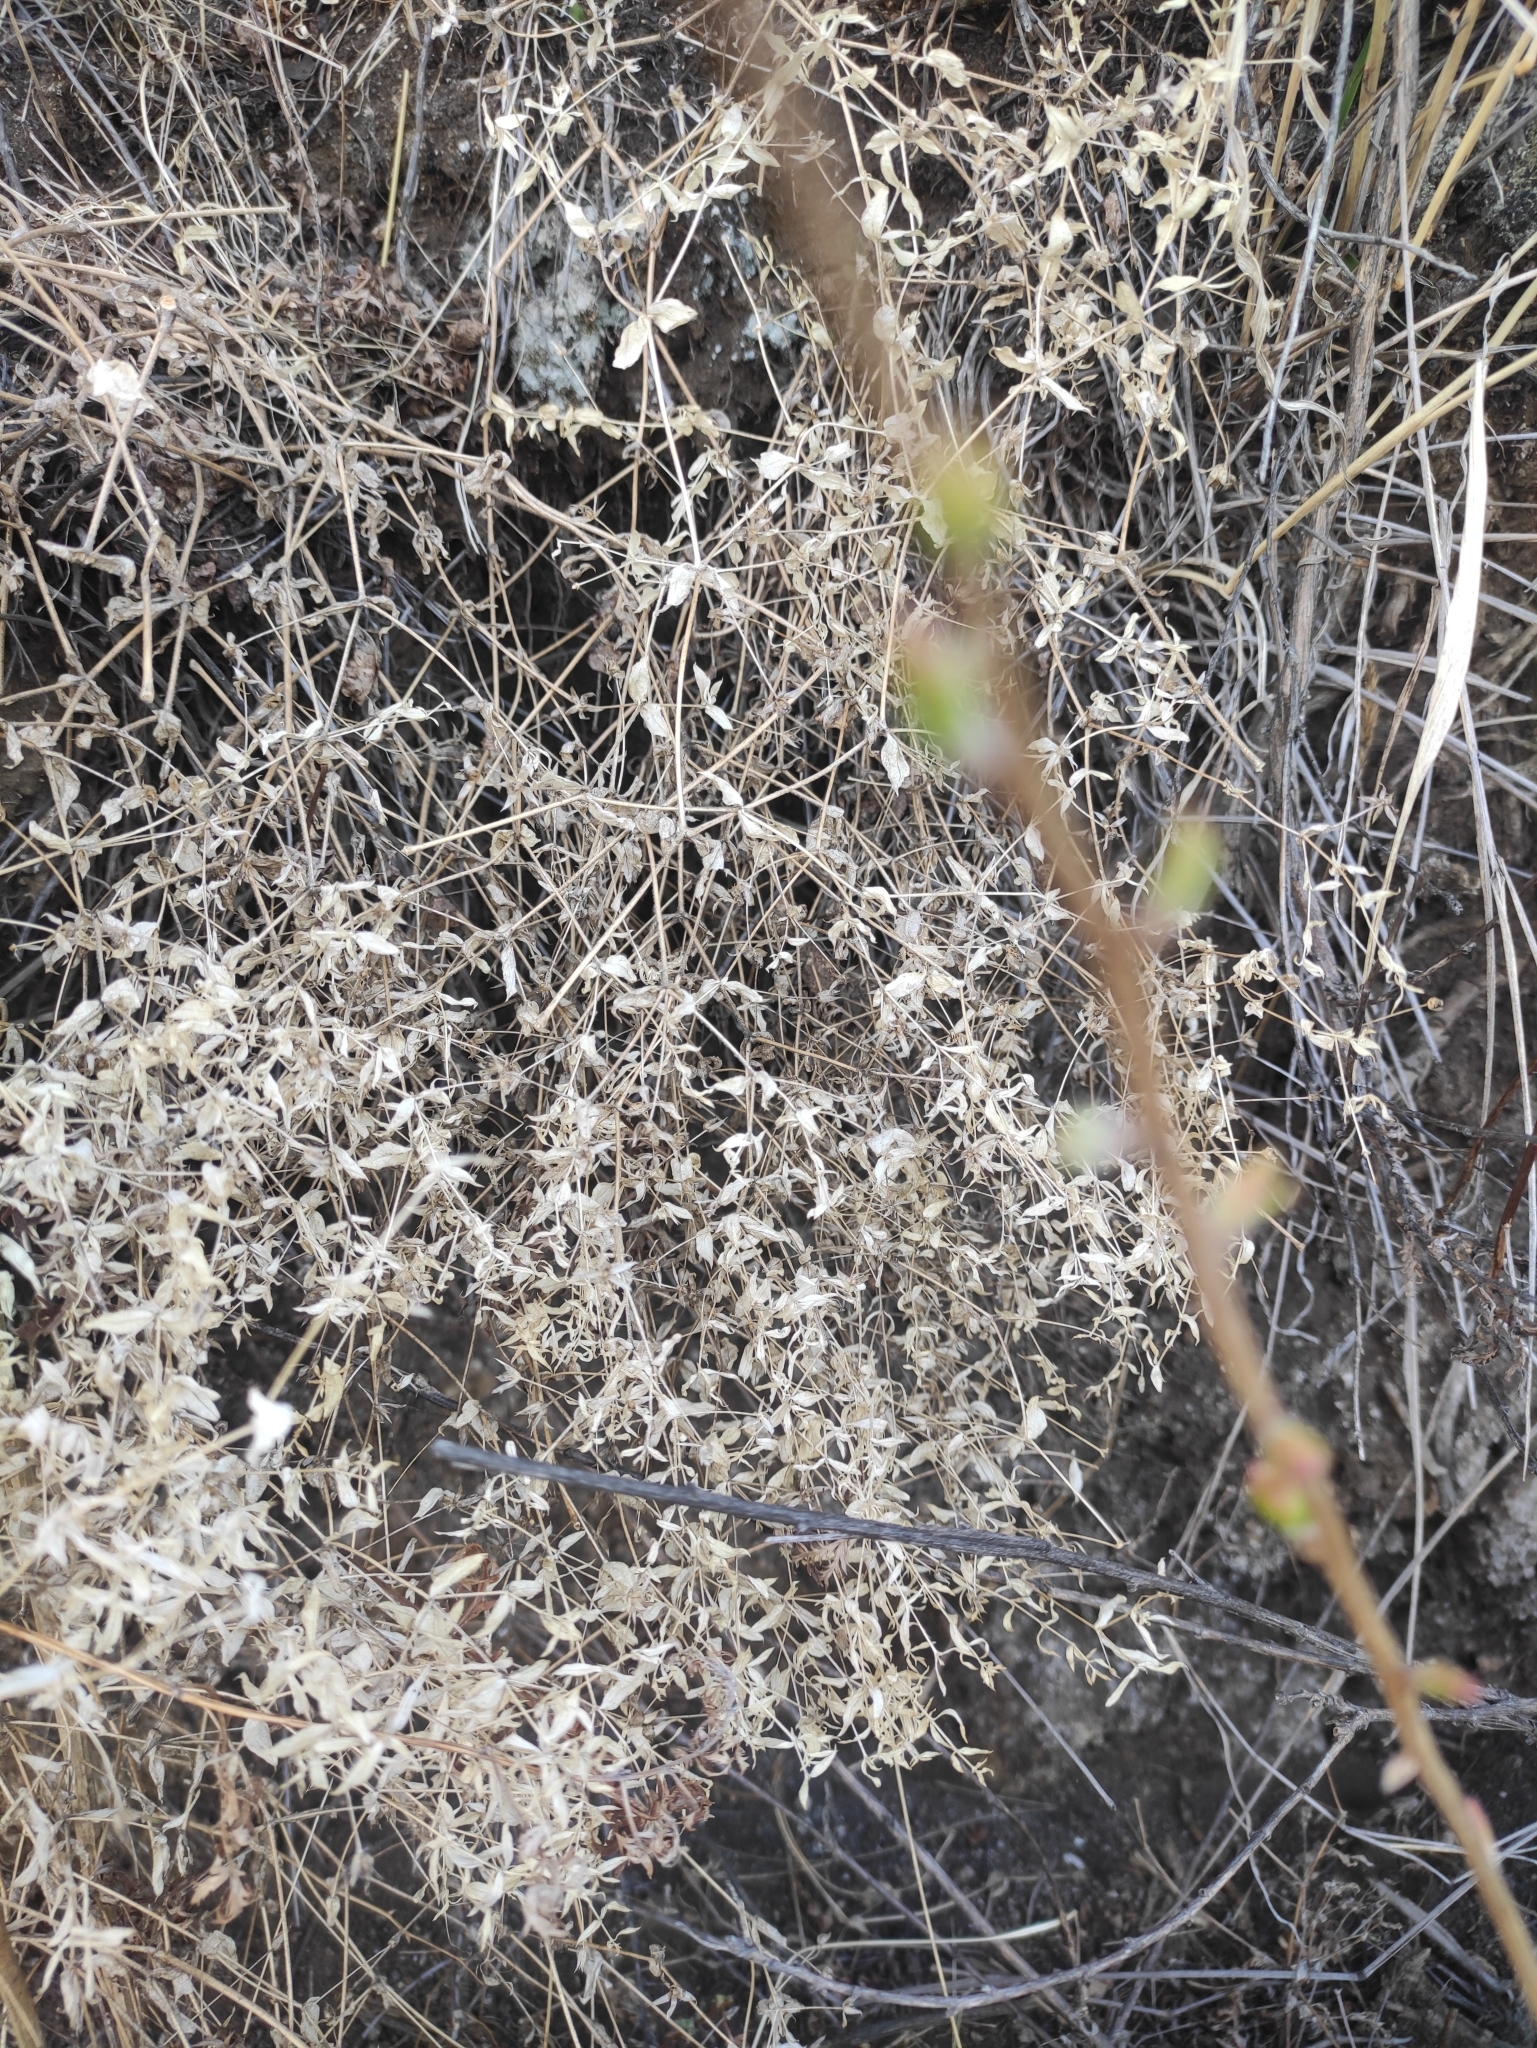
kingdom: Plantae
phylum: Tracheophyta
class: Magnoliopsida
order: Caryophyllales
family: Caryophyllaceae
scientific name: Caryophyllaceae
